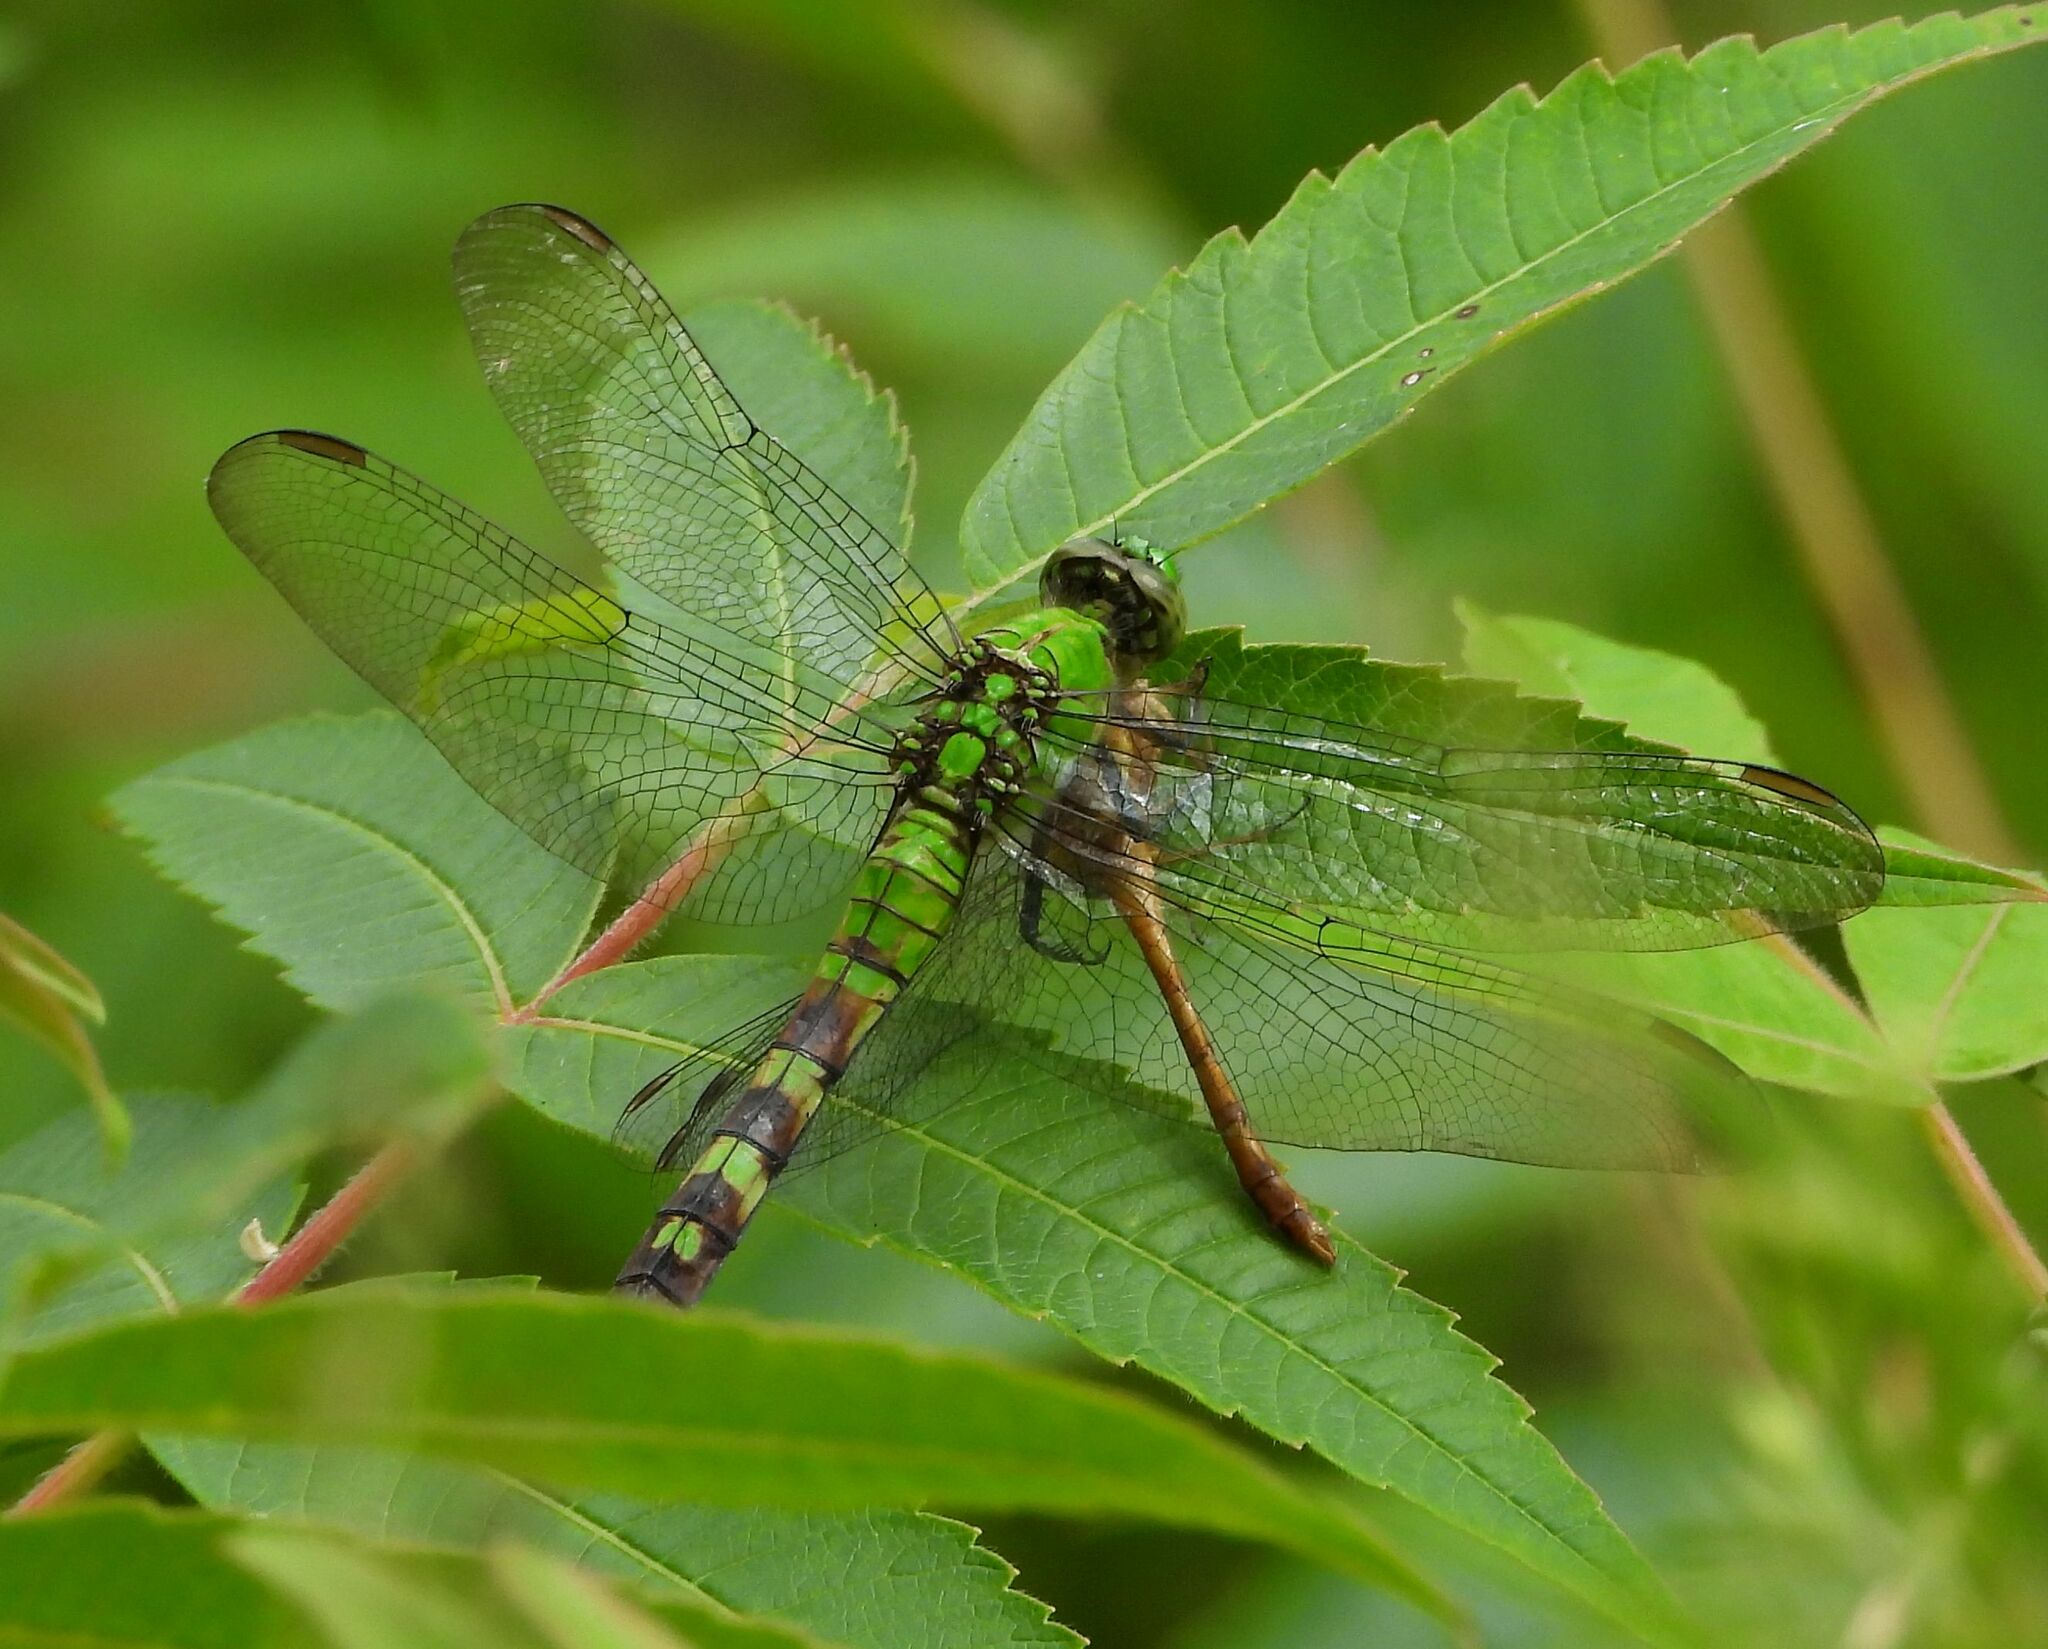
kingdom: Animalia
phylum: Arthropoda
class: Insecta
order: Odonata
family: Libellulidae
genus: Erythemis
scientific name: Erythemis simplicicollis
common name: Eastern pondhawk
